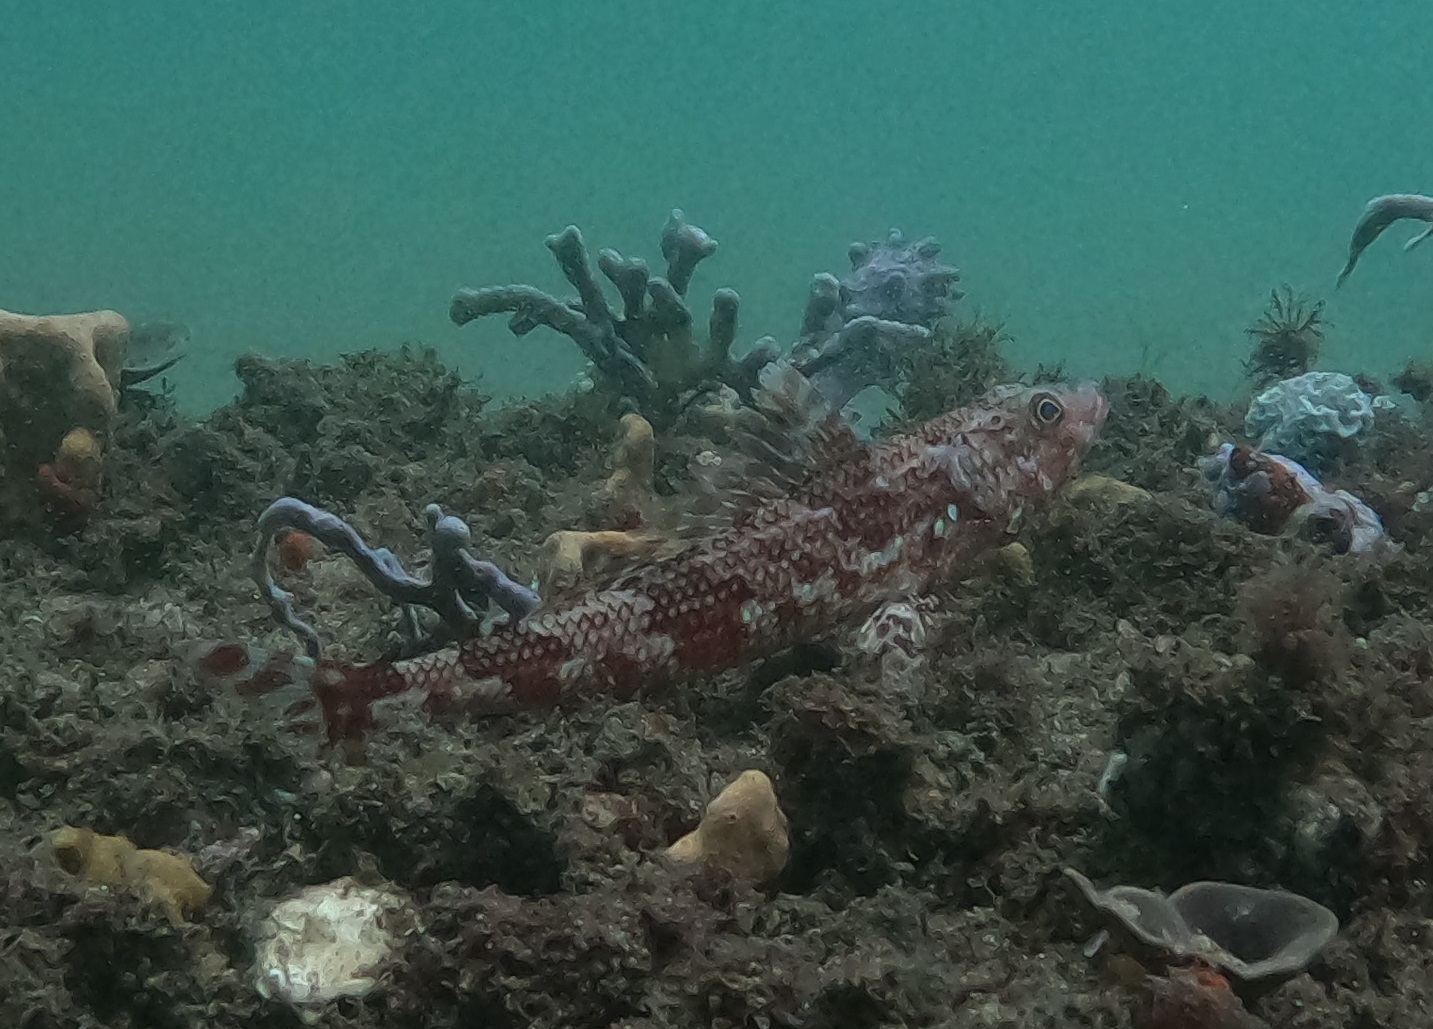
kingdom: Animalia
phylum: Chordata
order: Aulopiformes
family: Aulopidae
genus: Latropiscis
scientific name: Latropiscis purpurissatus
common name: Sergeant baker
